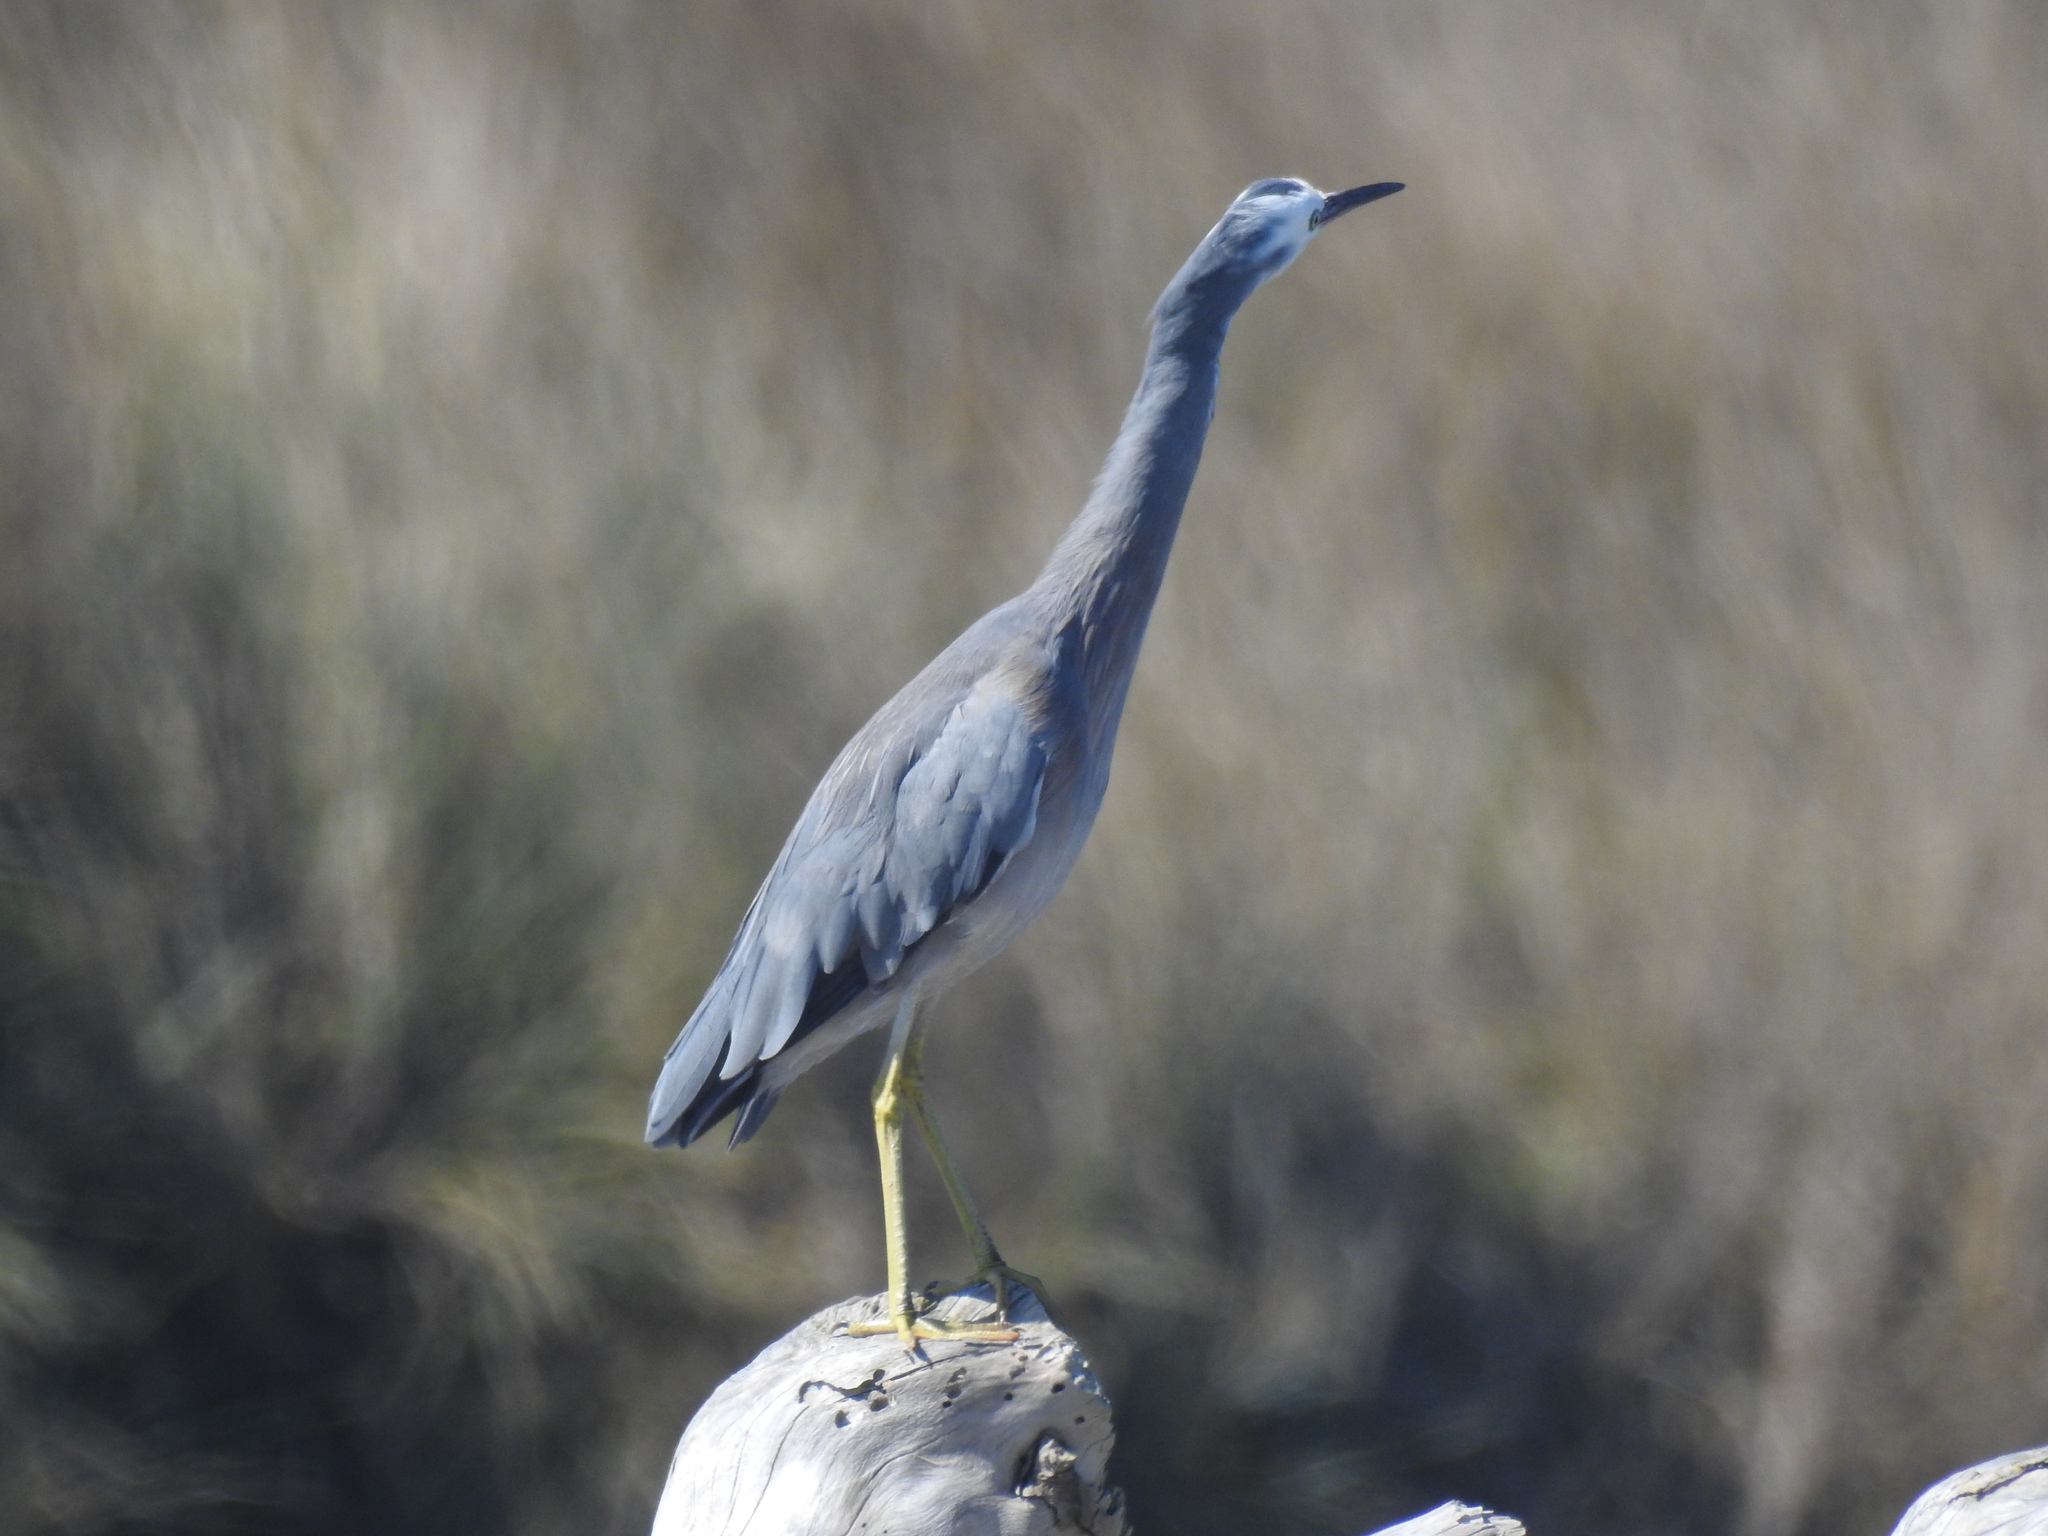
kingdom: Animalia
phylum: Chordata
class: Aves
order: Pelecaniformes
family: Ardeidae
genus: Egretta
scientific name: Egretta novaehollandiae
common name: White-faced heron
